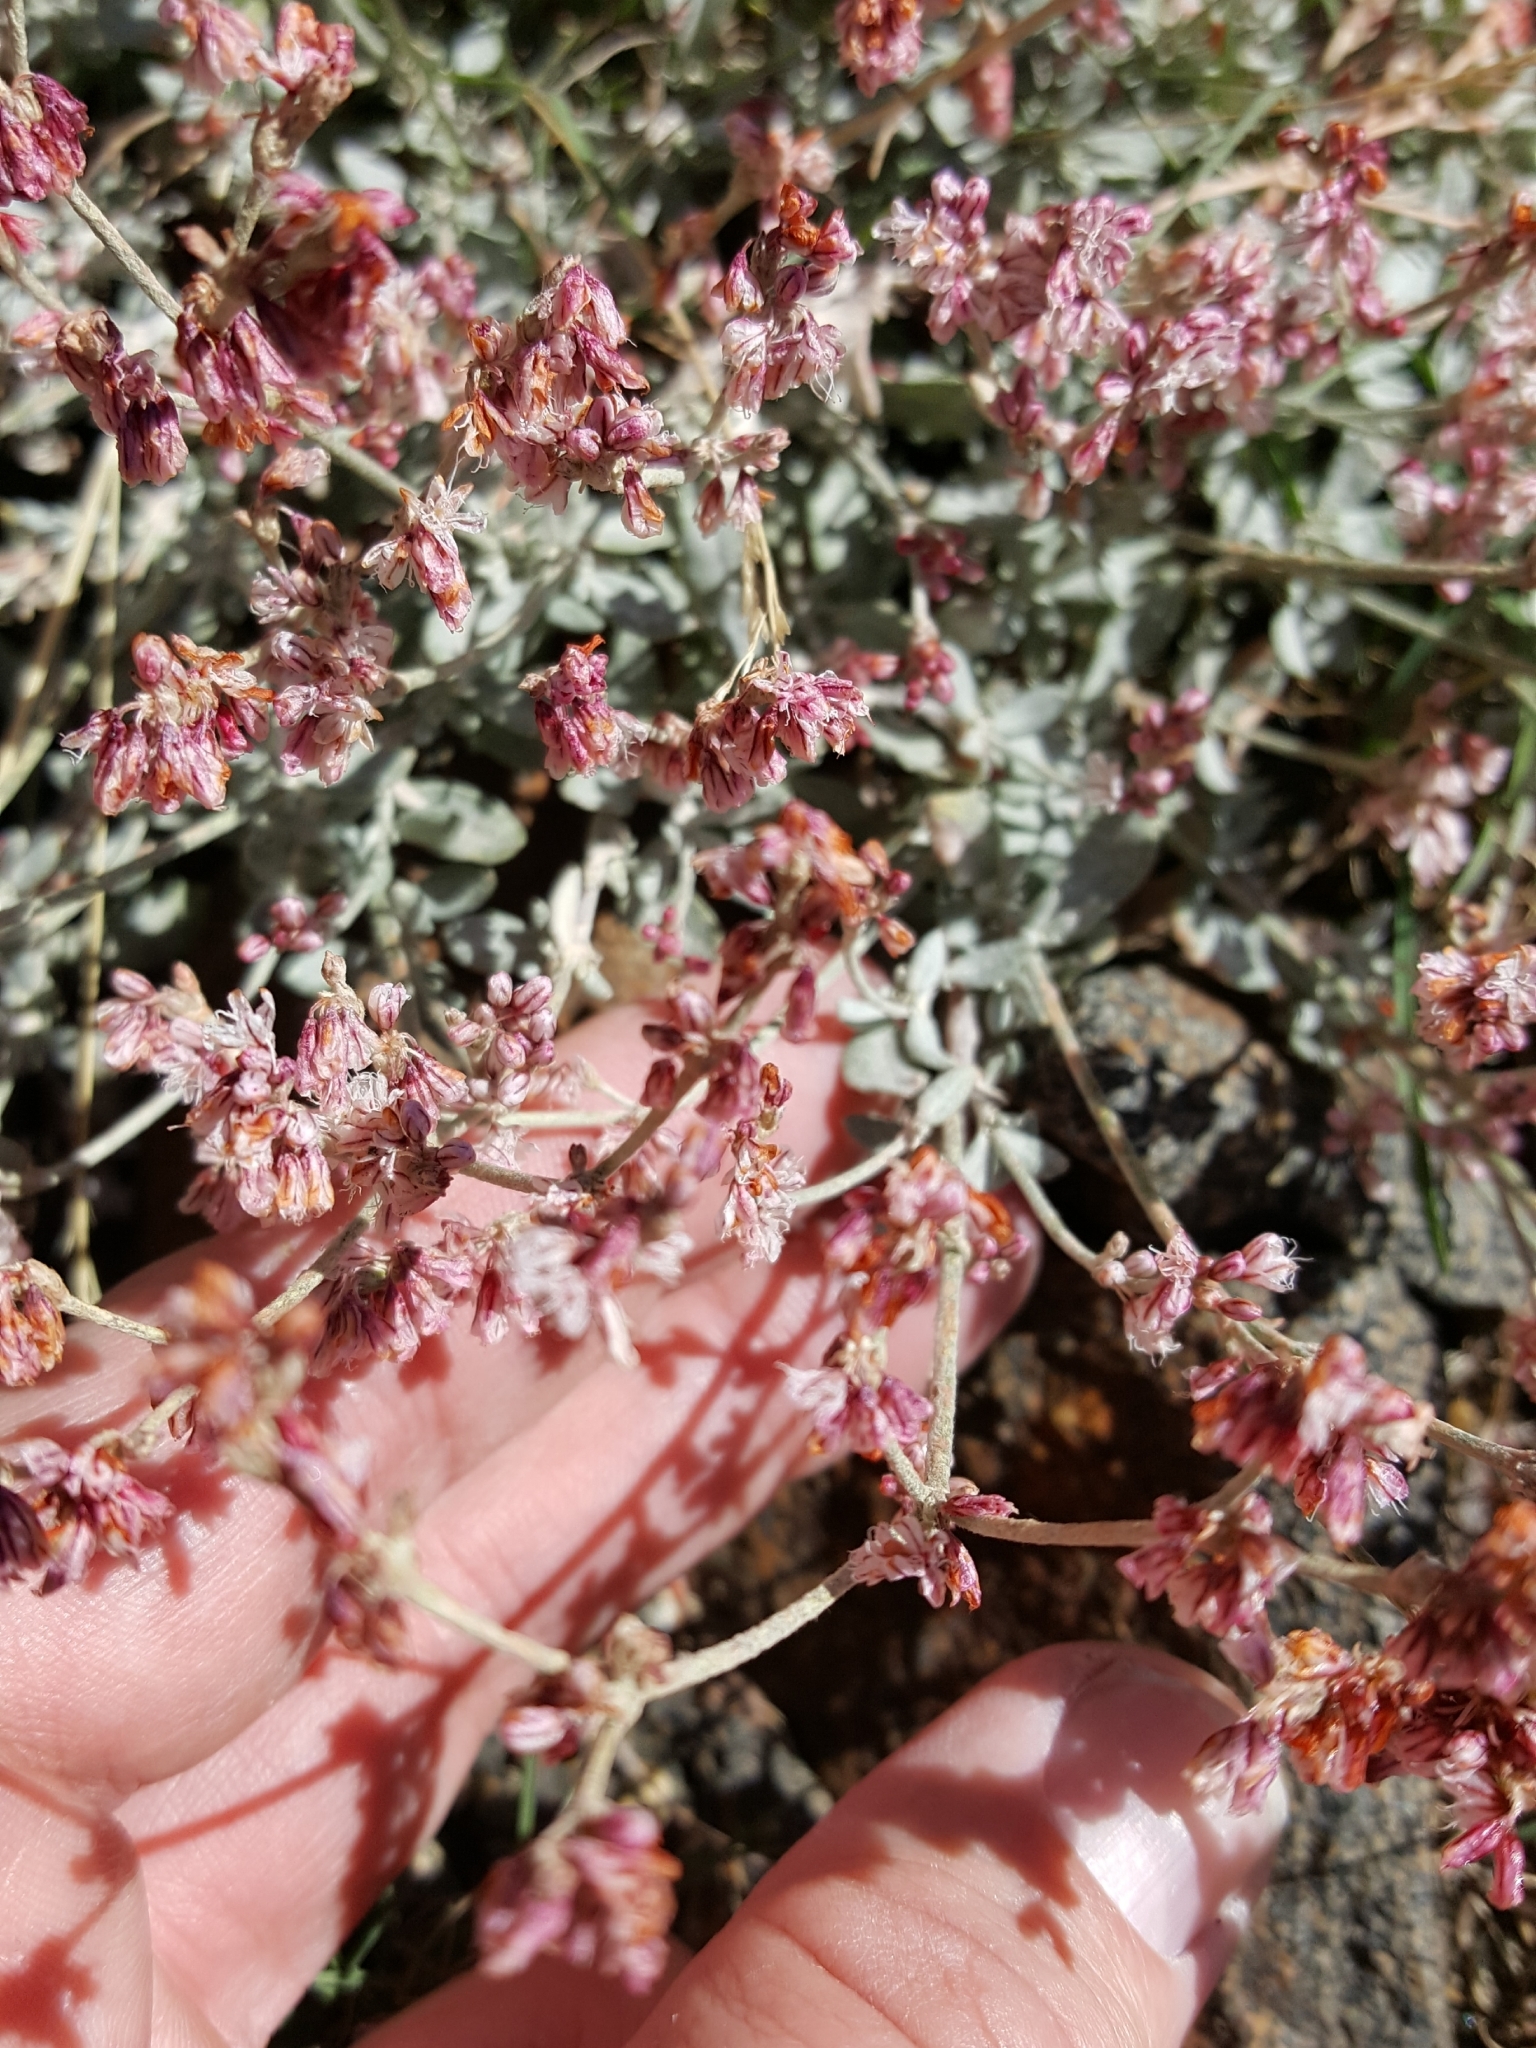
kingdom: Plantae
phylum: Tracheophyta
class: Magnoliopsida
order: Caryophyllales
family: Polygonaceae
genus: Eriogonum
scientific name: Eriogonum wrightii
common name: Bastard-sage
